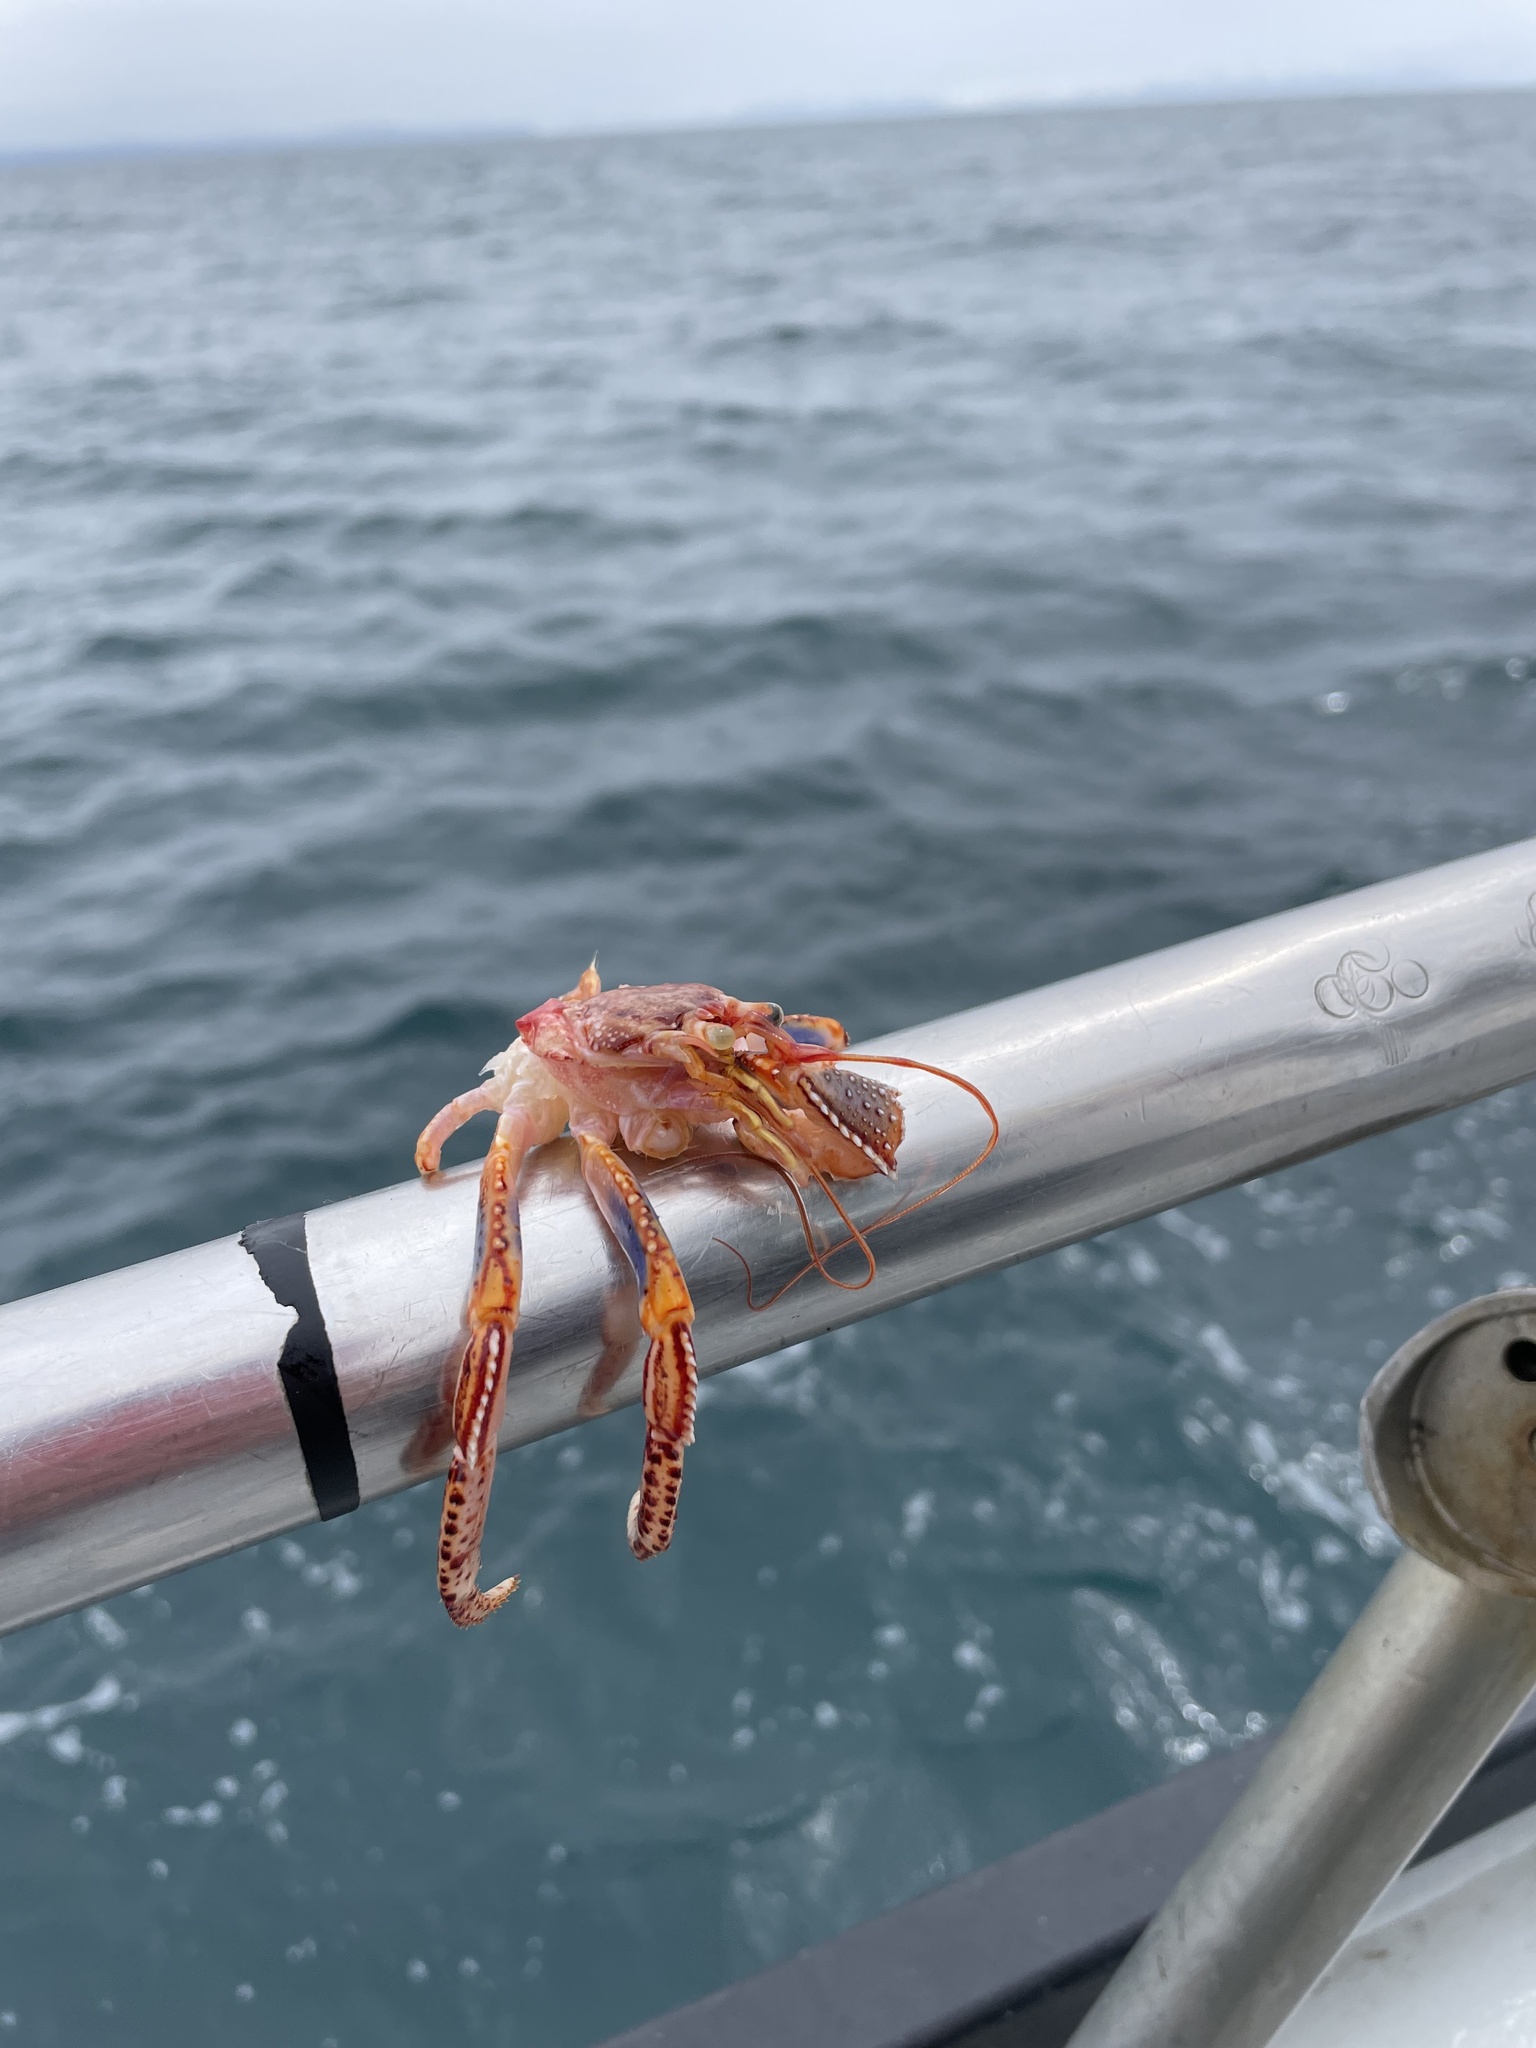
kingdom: Animalia
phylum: Arthropoda
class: Malacostraca
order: Decapoda
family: Paguridae
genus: Elassochirus
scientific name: Elassochirus tenuimanus
